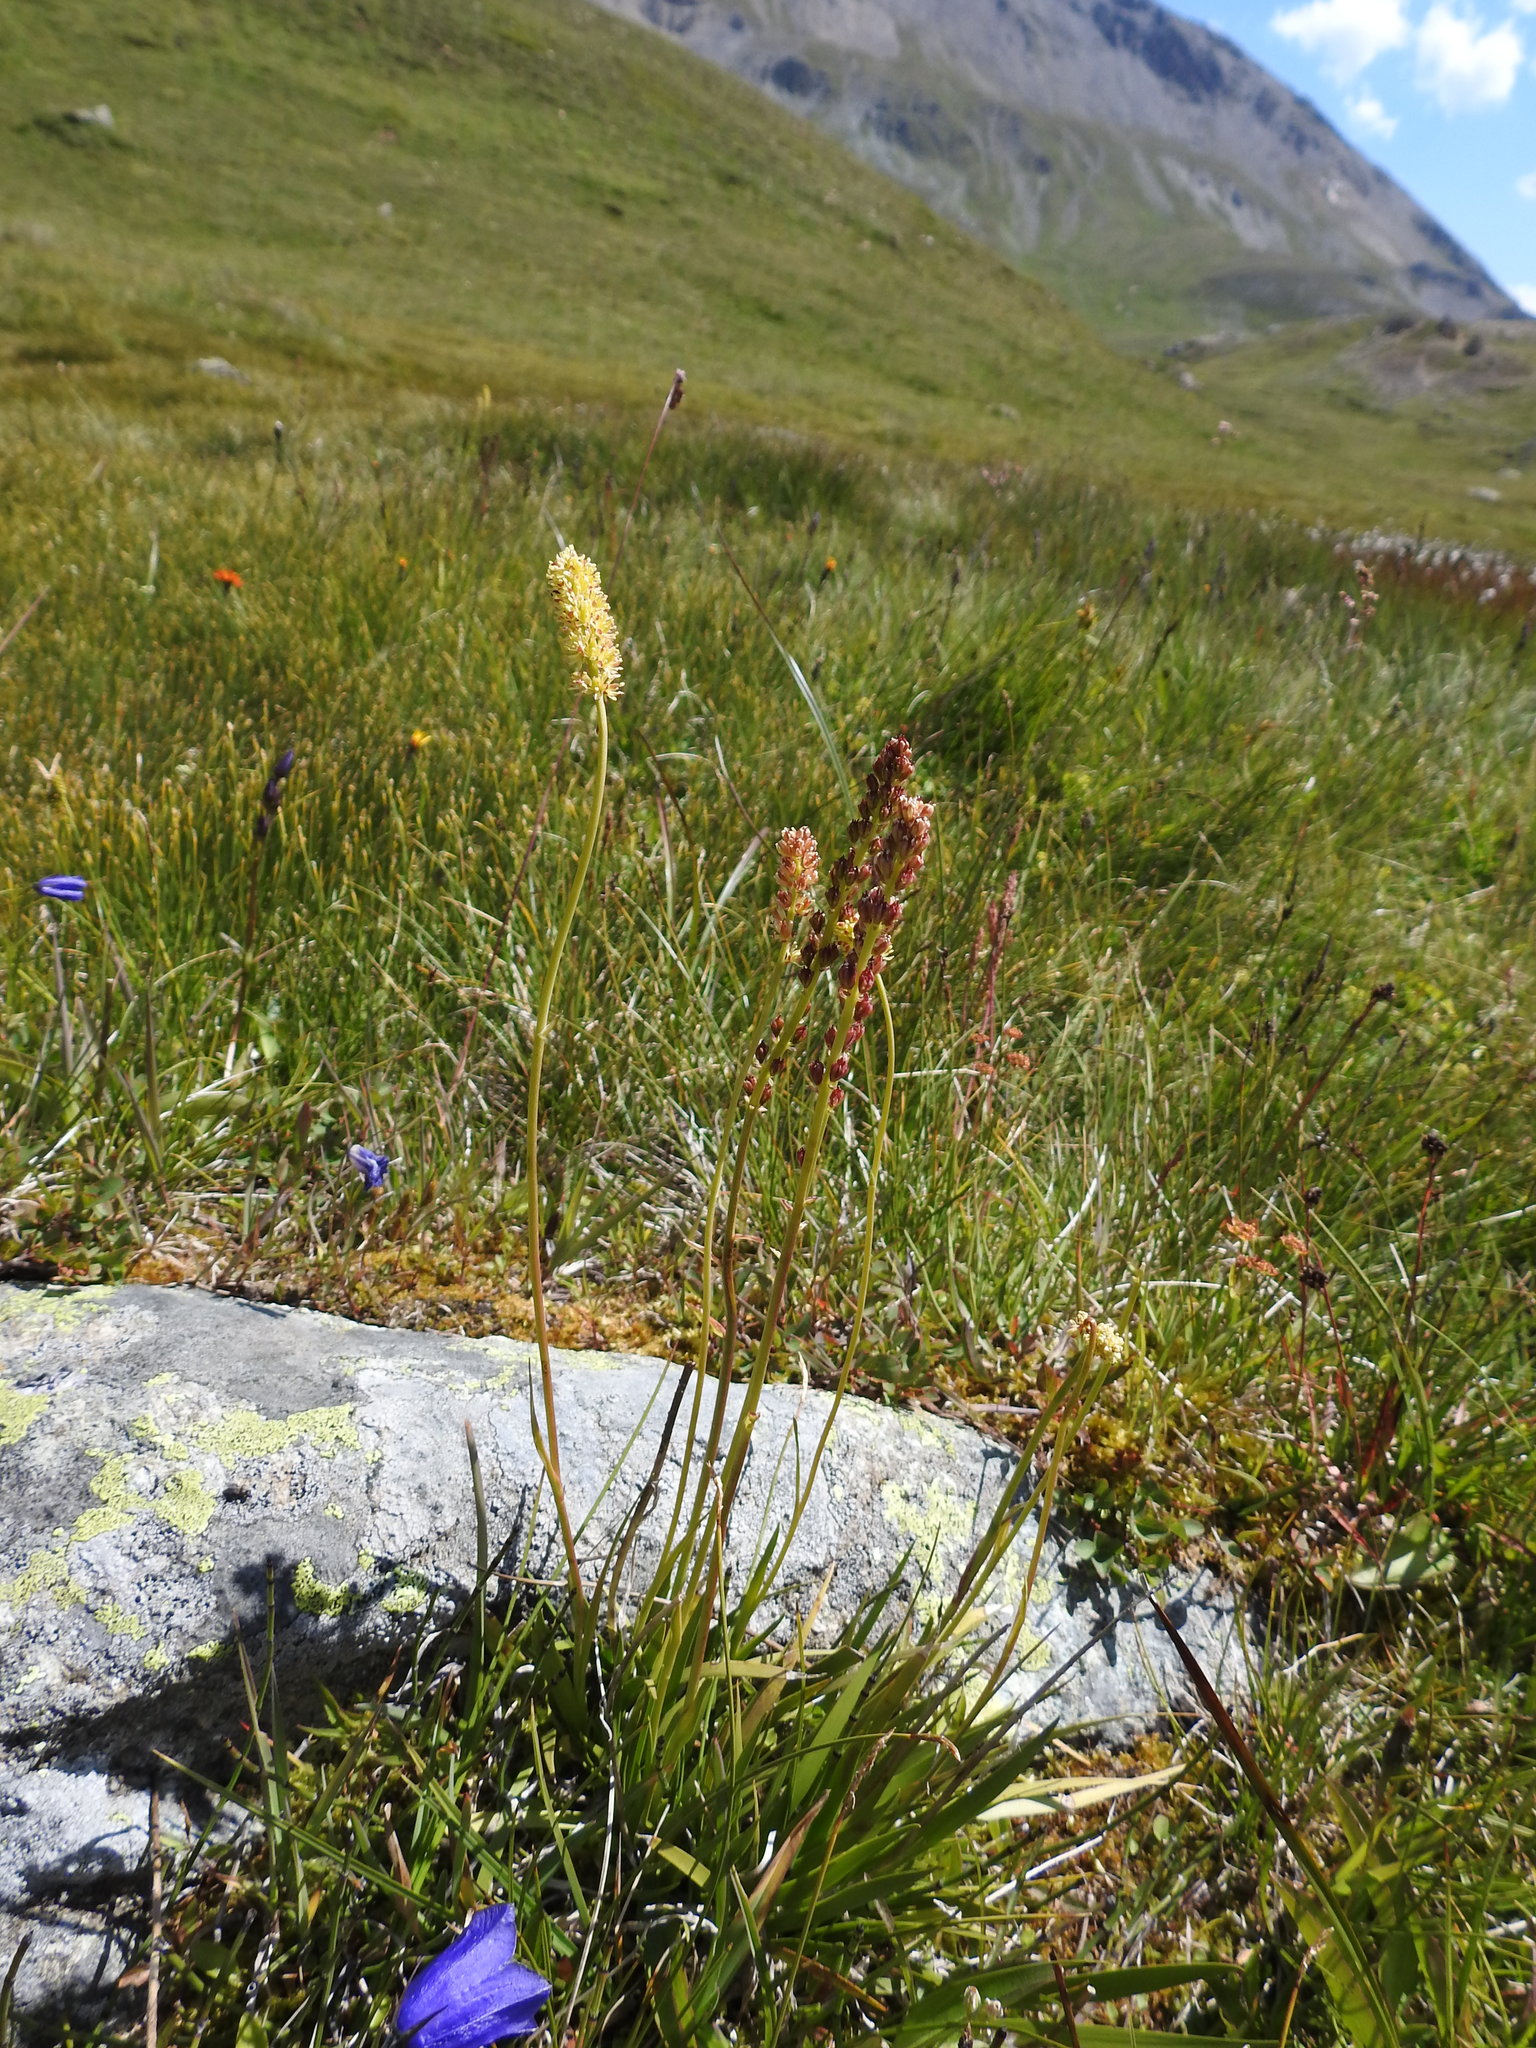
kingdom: Plantae
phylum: Tracheophyta
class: Liliopsida
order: Alismatales
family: Tofieldiaceae
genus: Tofieldia
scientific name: Tofieldia calyculata
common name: German-asphodel
